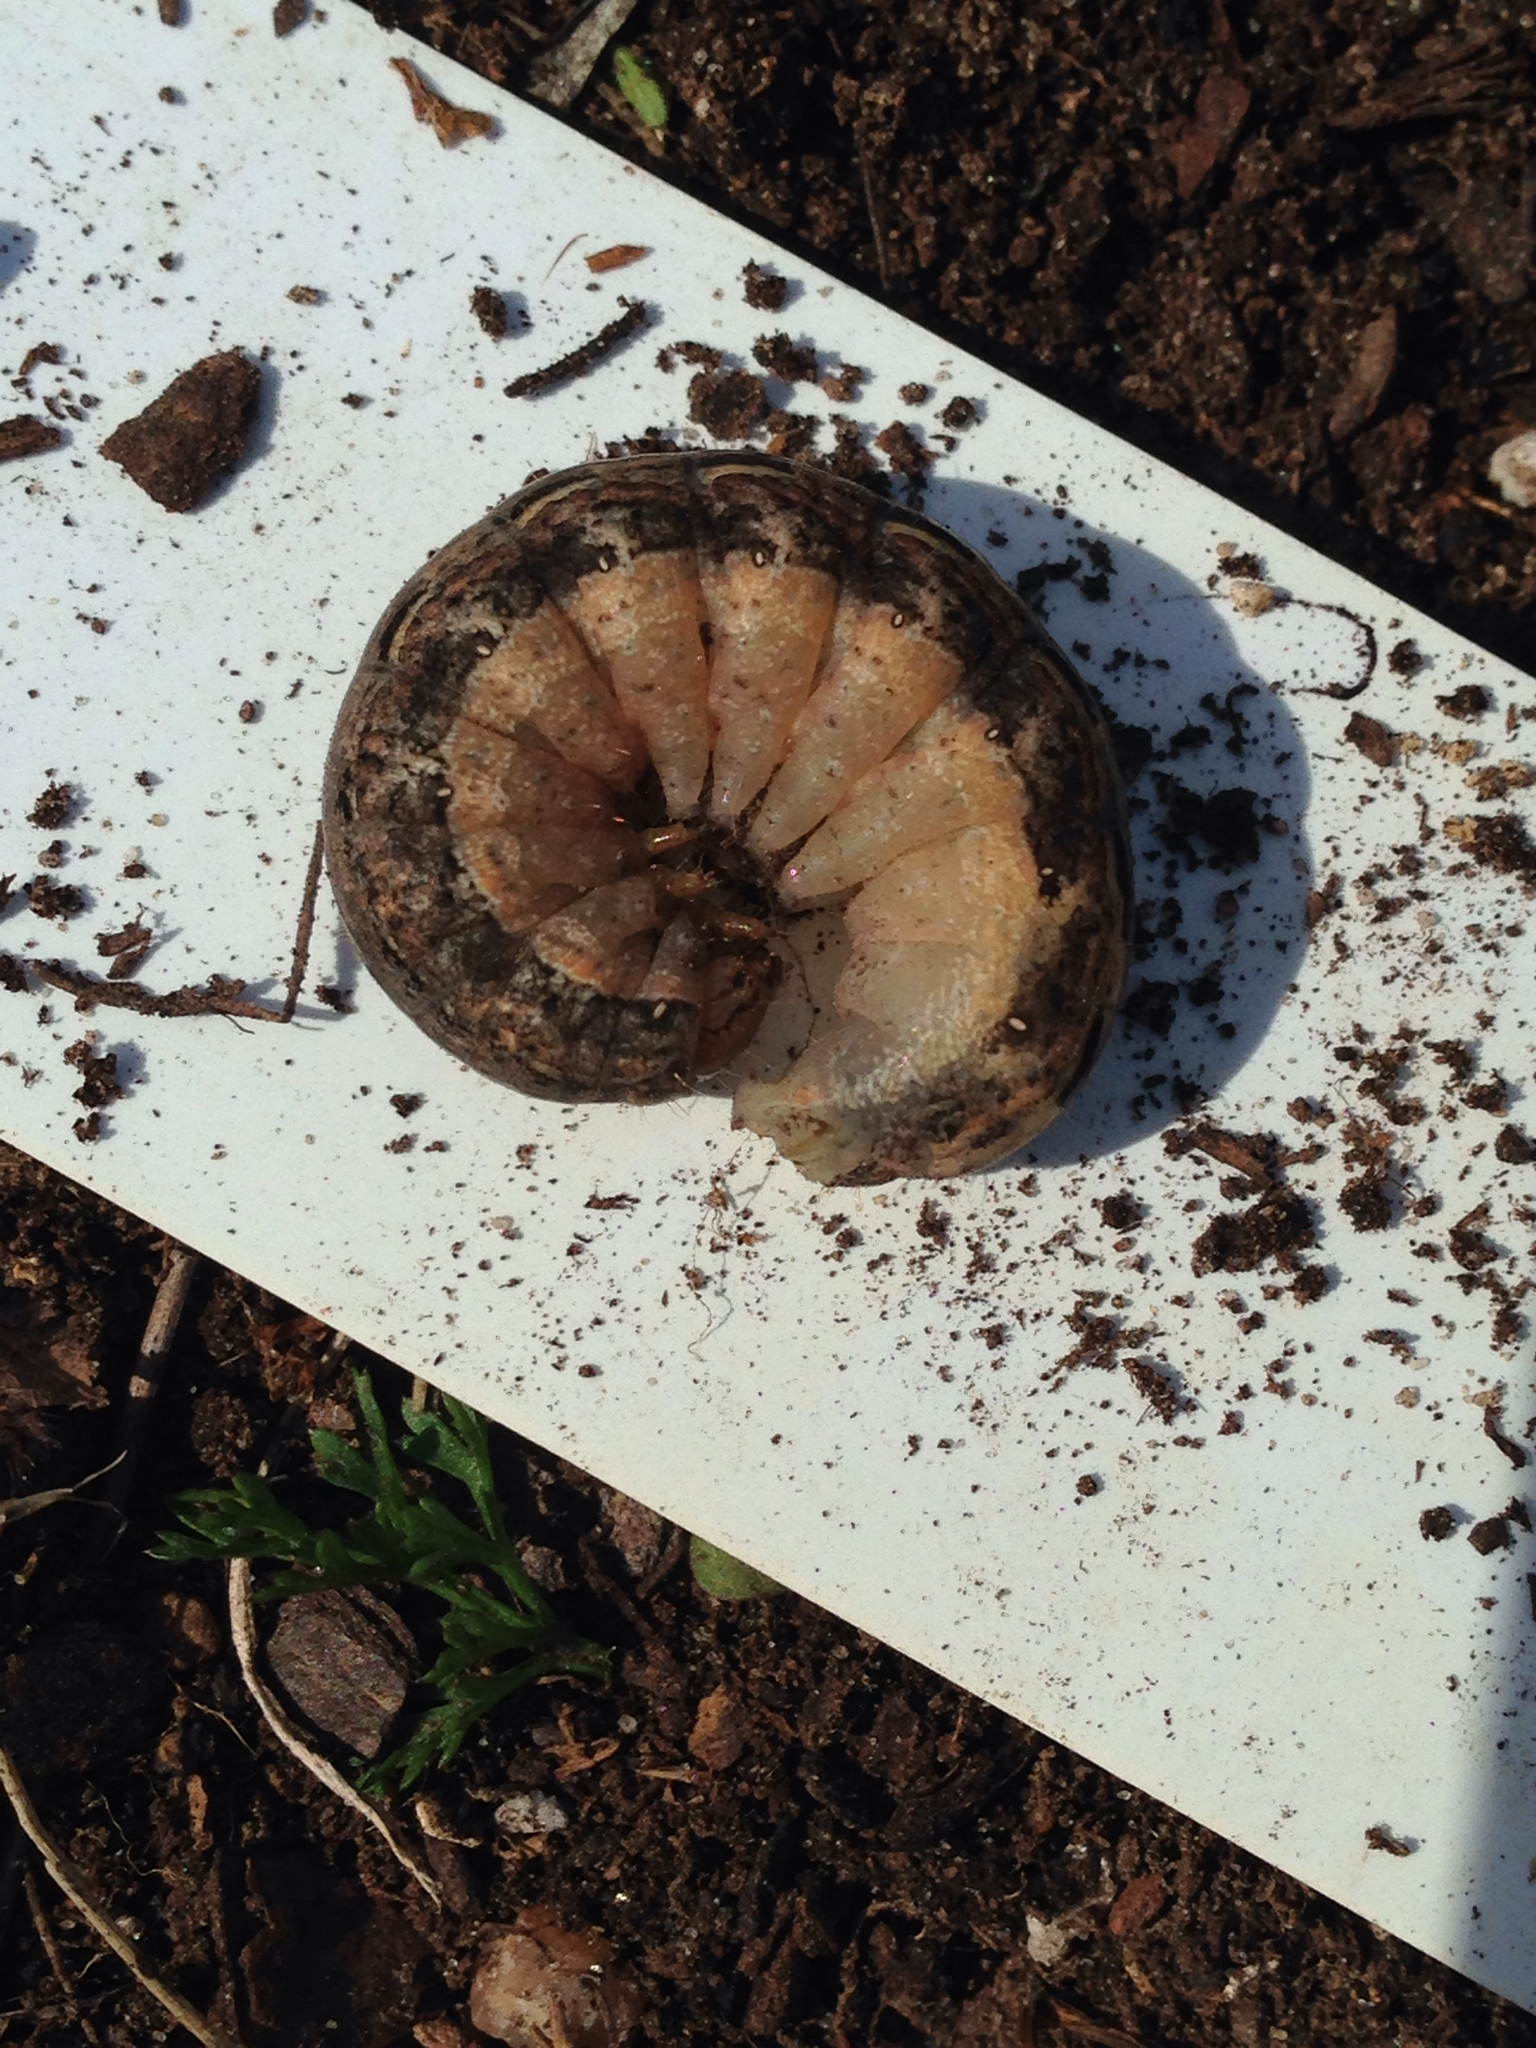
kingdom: Animalia
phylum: Arthropoda
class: Insecta
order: Lepidoptera
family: Noctuidae
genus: Noctua
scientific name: Noctua pronuba
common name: Large yellow underwing
